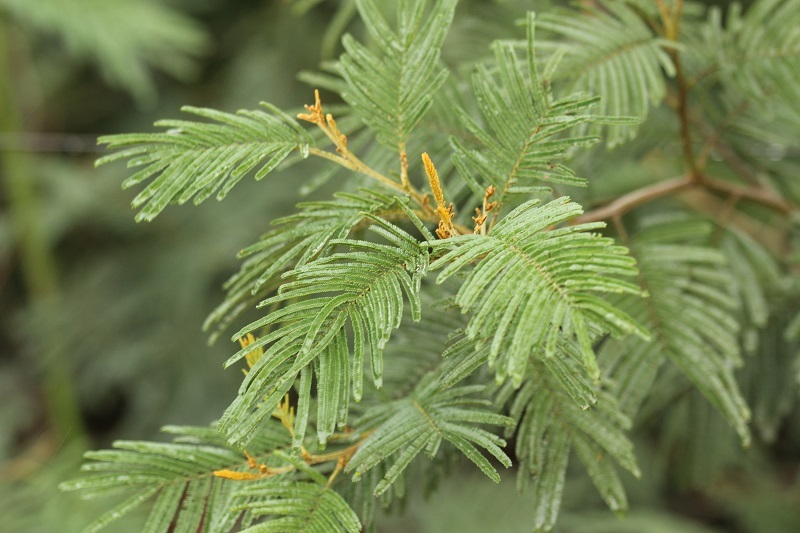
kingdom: Plantae
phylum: Tracheophyta
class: Magnoliopsida
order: Fabales
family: Fabaceae
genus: Acacia
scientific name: Acacia mearnsii
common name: Black wattle
